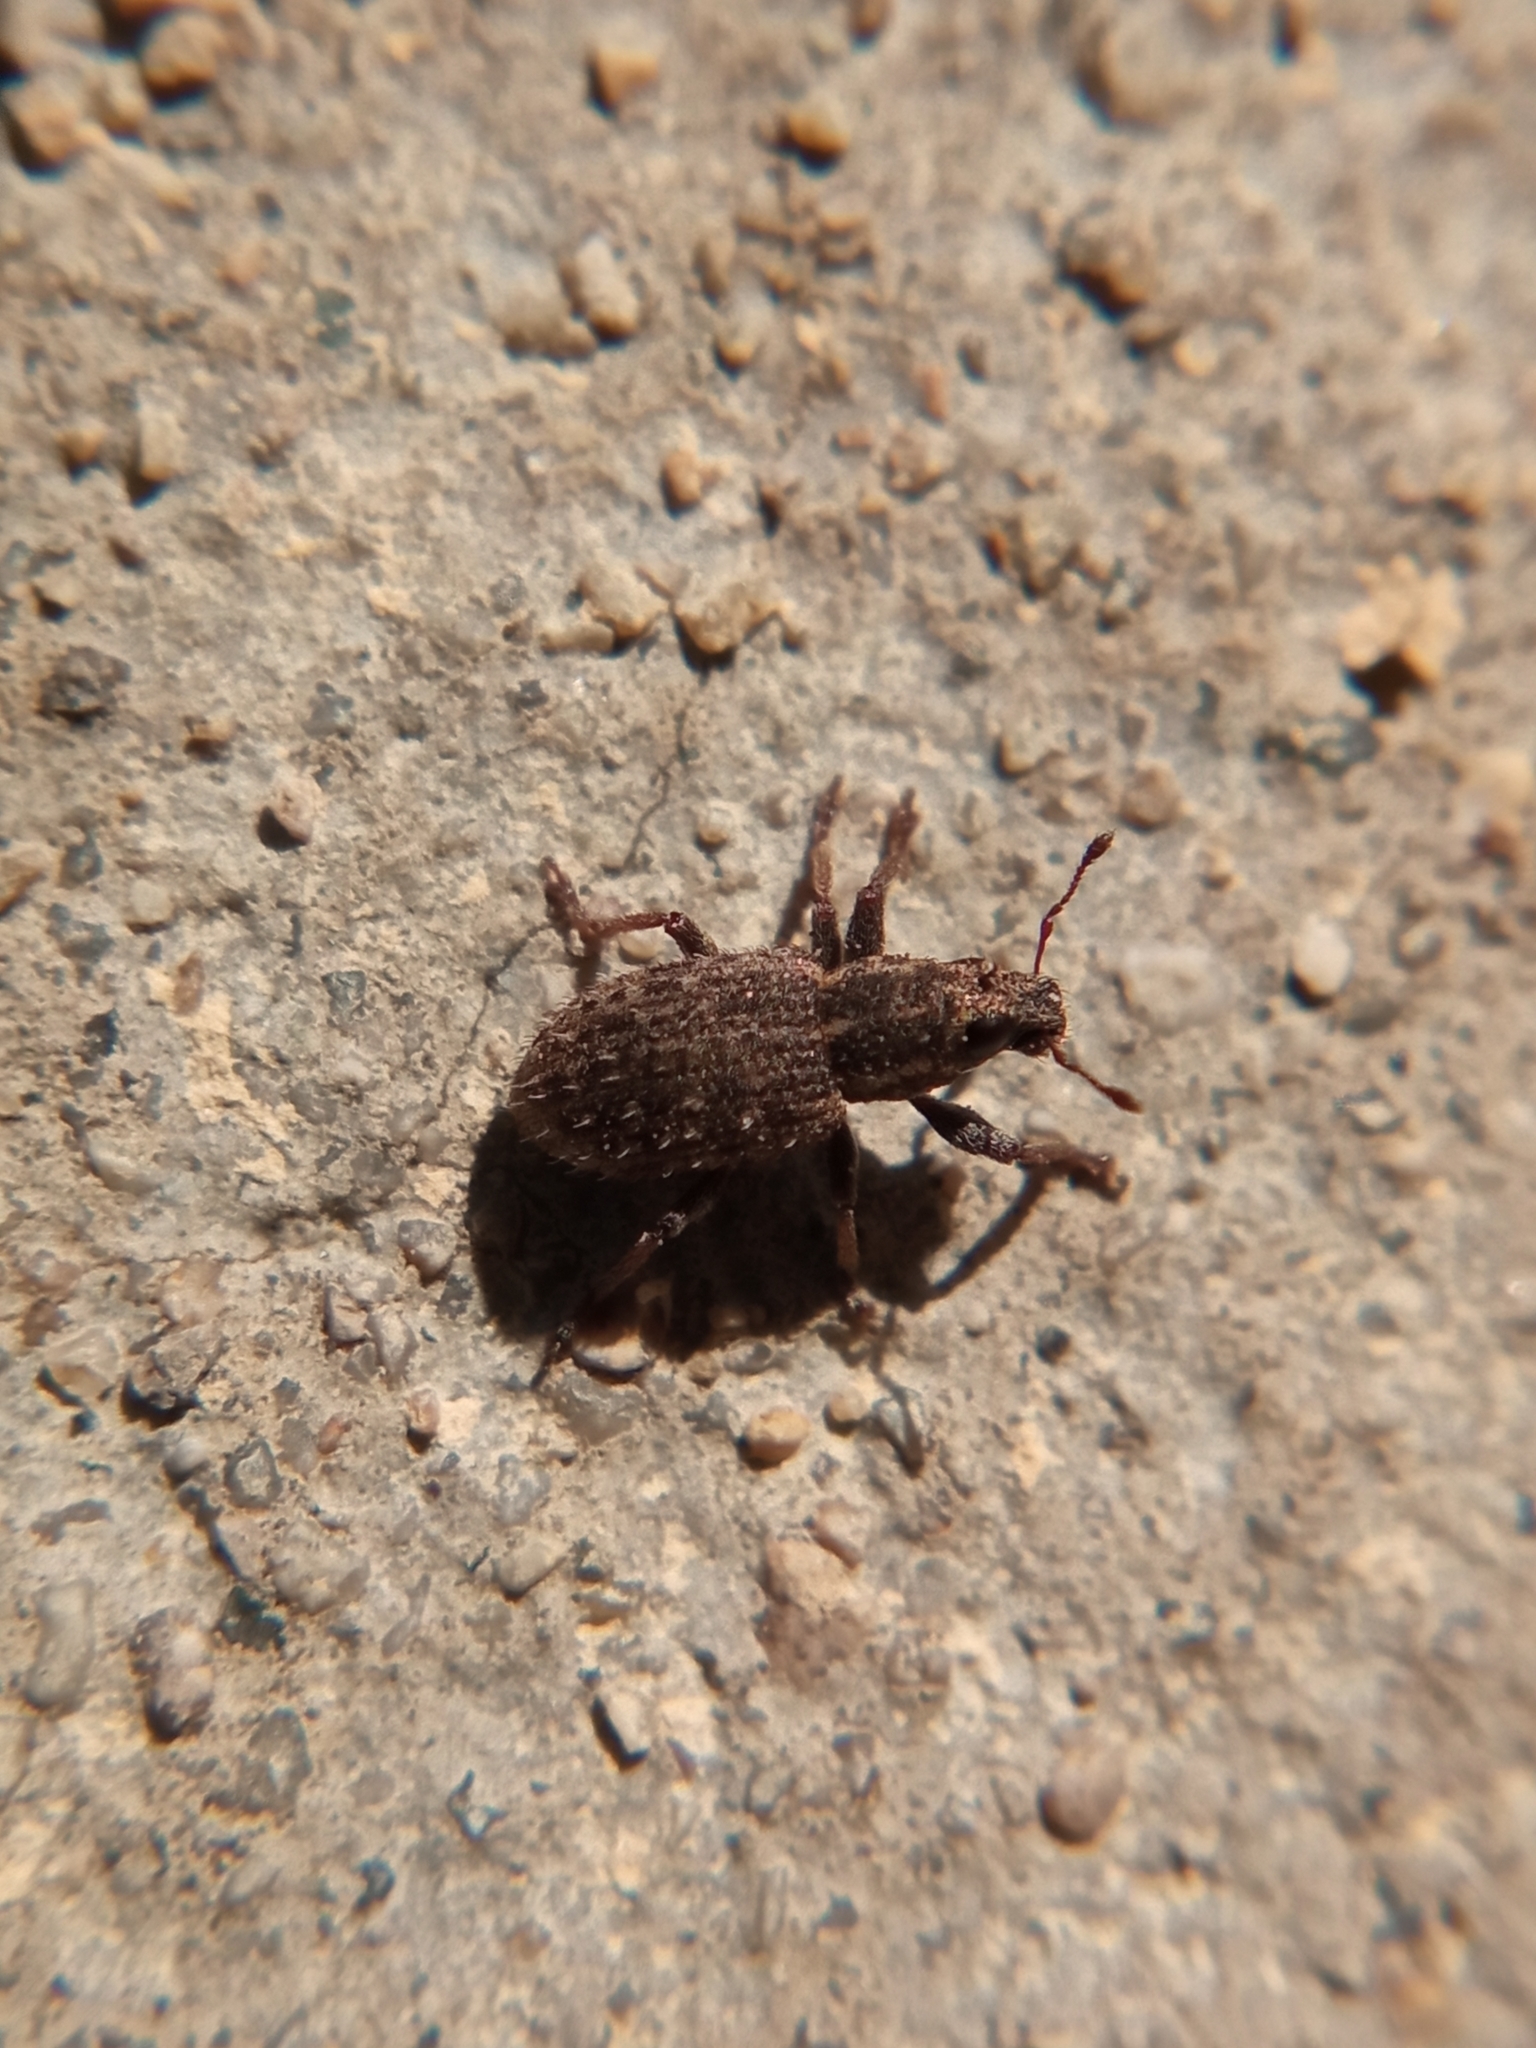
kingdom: Animalia
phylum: Arthropoda
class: Insecta
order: Coleoptera
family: Curculionidae
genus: Sitona
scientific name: Sitona hispidulus
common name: Clover weevil
